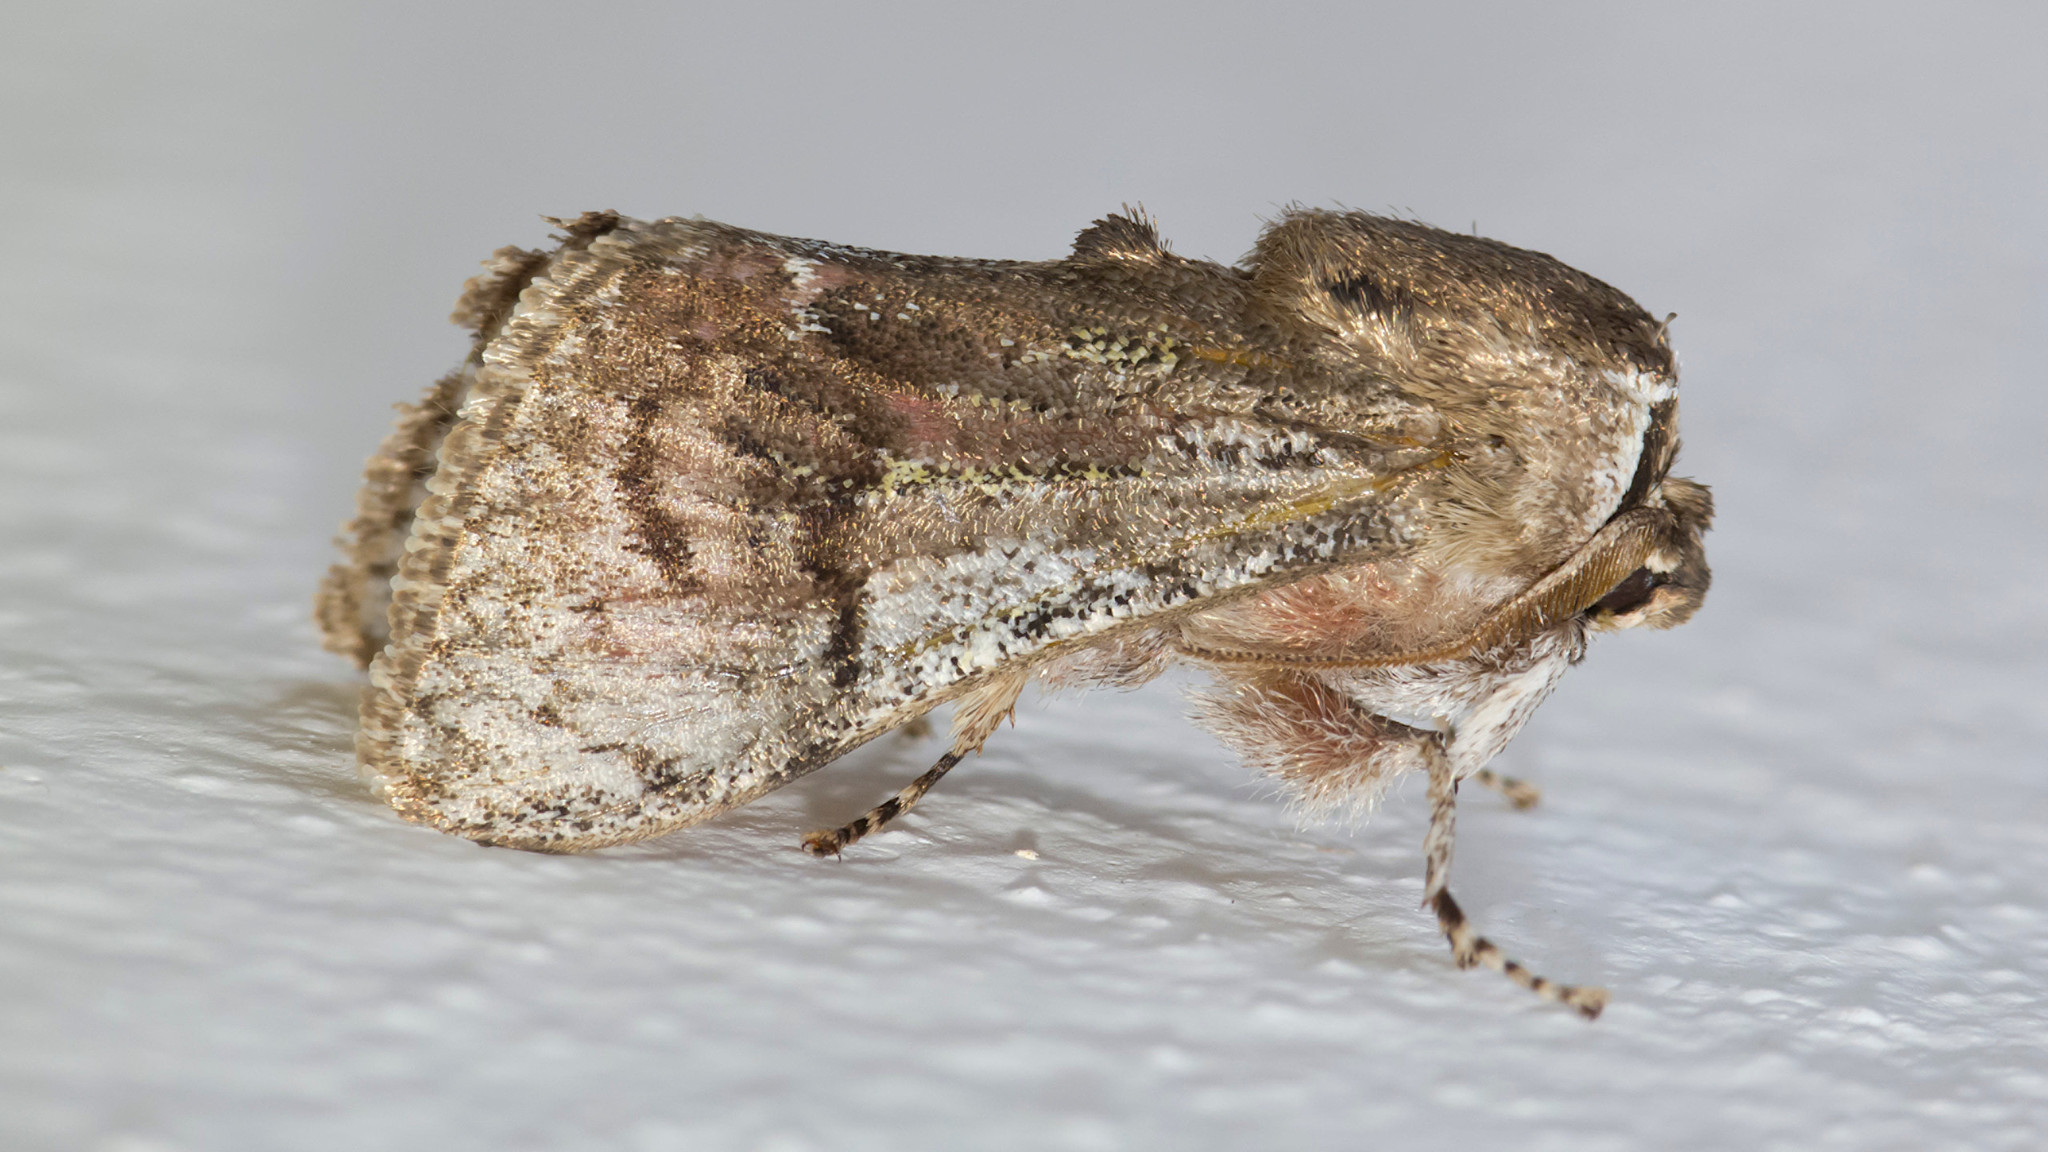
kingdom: Animalia
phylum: Arthropoda
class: Insecta
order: Lepidoptera
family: Aididae
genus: Aidos
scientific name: Aidos amanda
